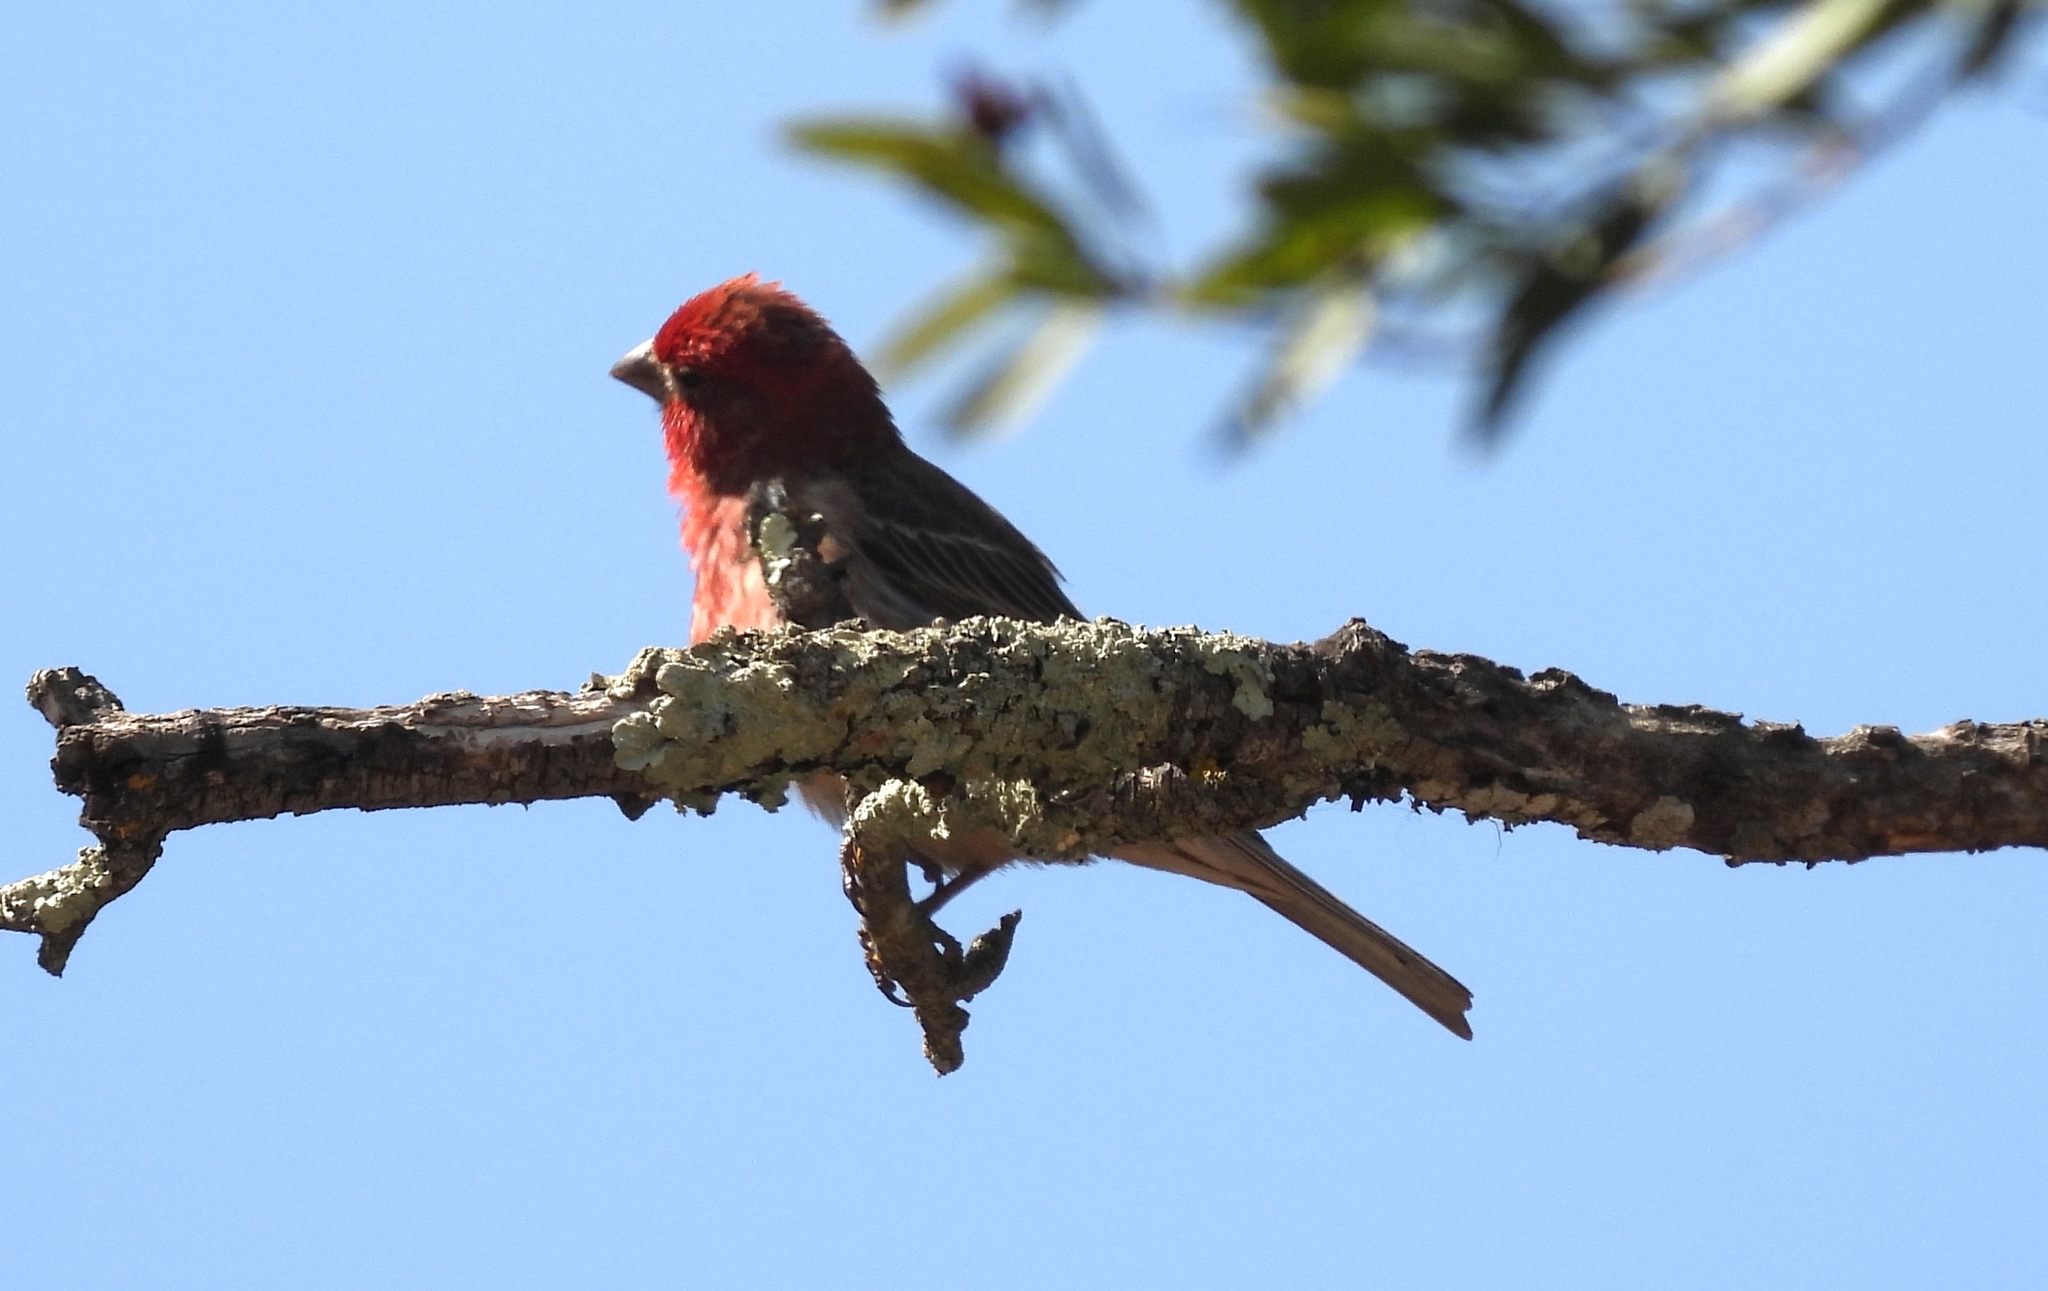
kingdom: Animalia
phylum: Chordata
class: Aves
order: Passeriformes
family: Fringillidae
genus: Haemorhous
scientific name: Haemorhous mexicanus
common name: House finch
